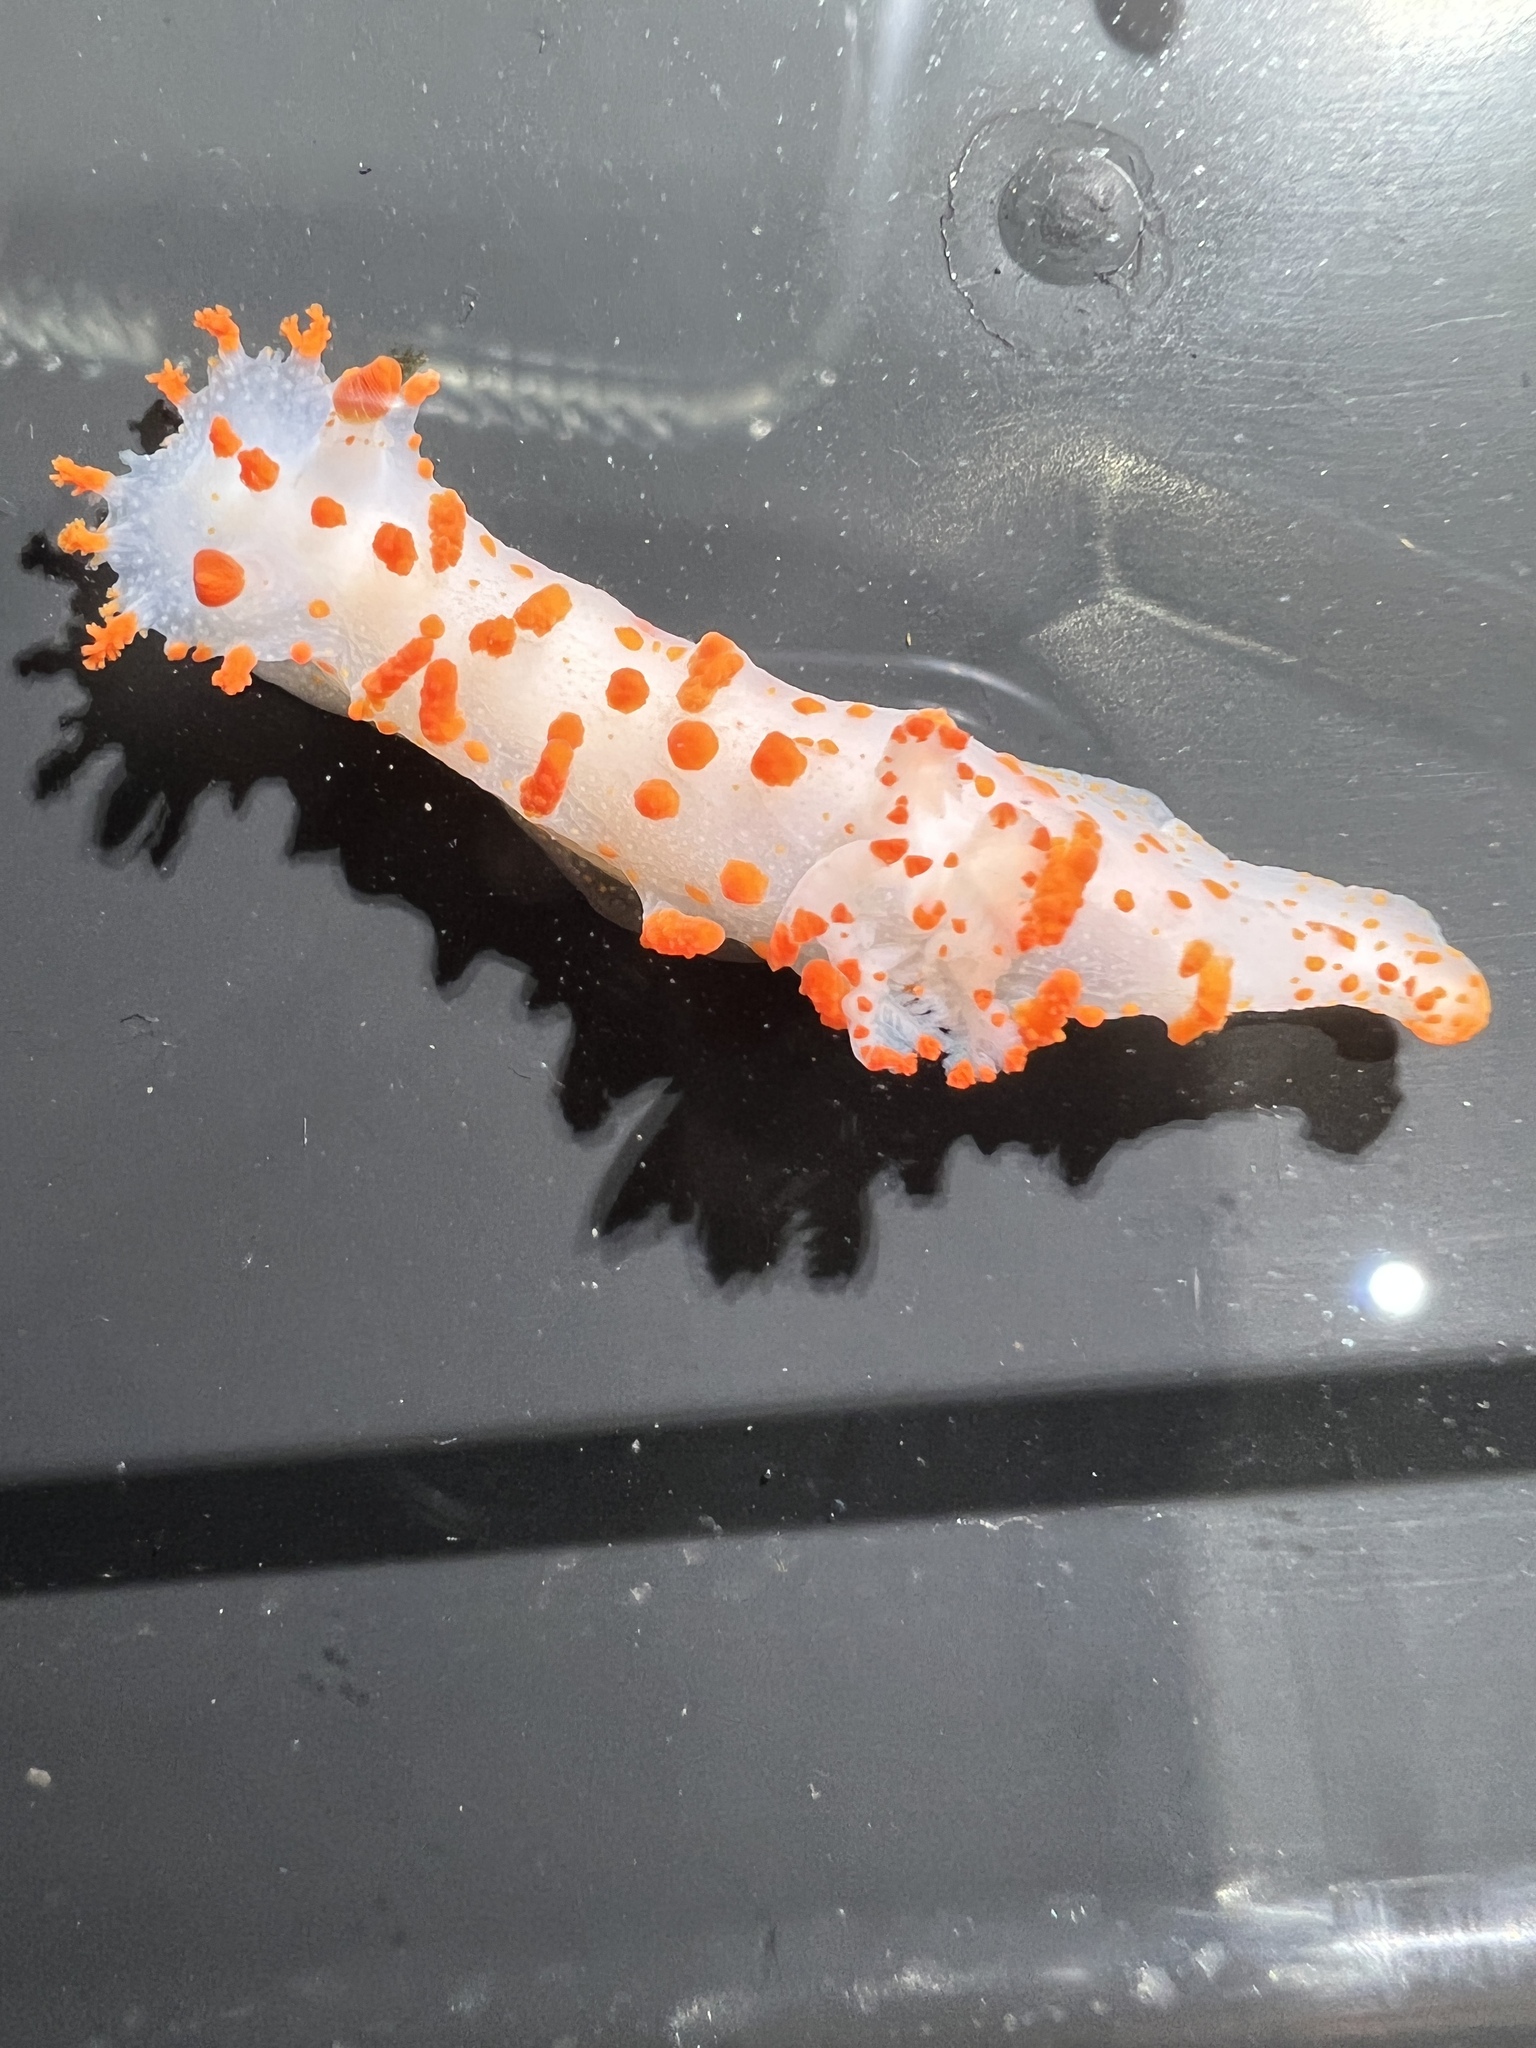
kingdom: Animalia
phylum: Mollusca
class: Gastropoda
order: Nudibranchia
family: Polyceridae
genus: Triopha
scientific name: Triopha catalinae
